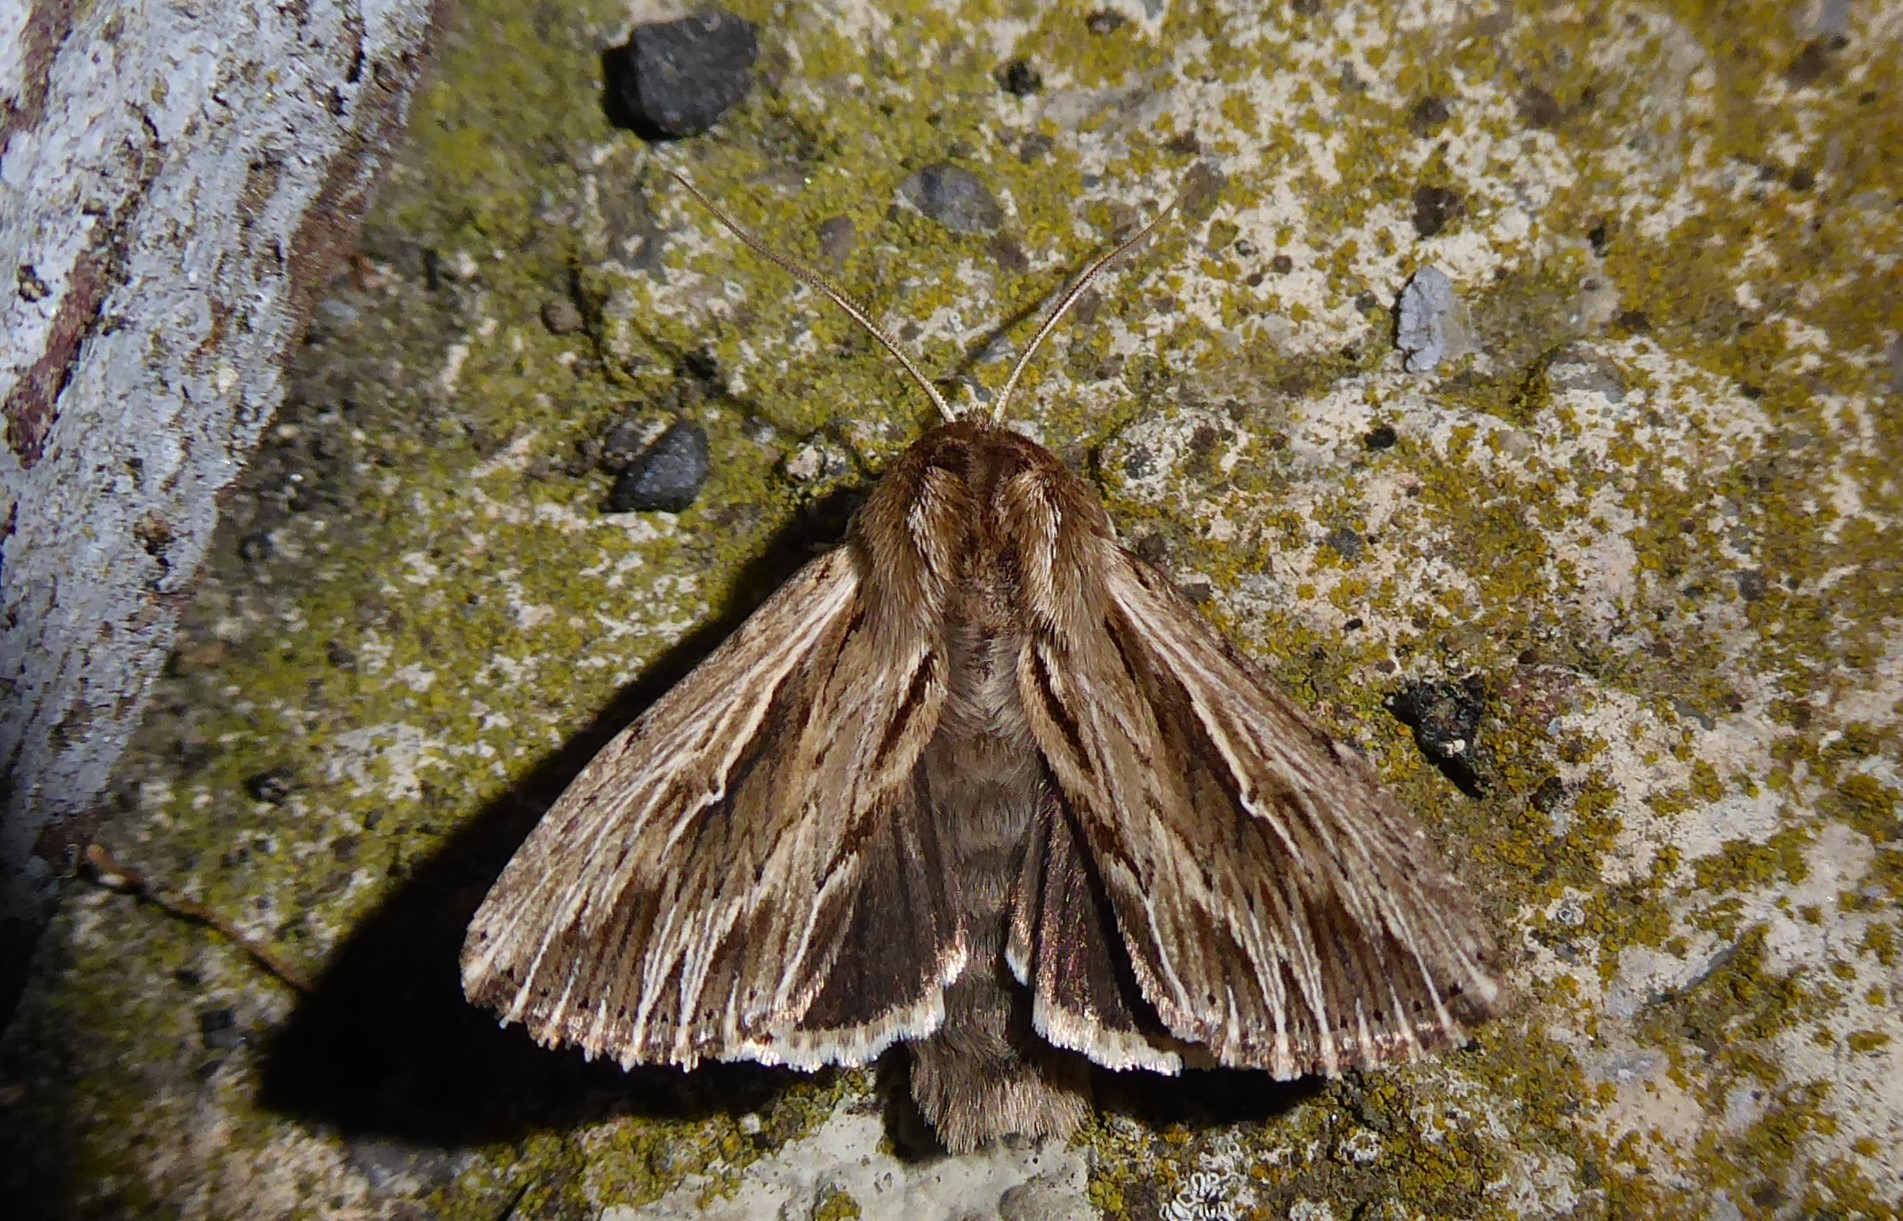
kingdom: Animalia
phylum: Arthropoda
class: Insecta
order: Lepidoptera
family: Noctuidae
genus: Persectania
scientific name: Persectania aversa
